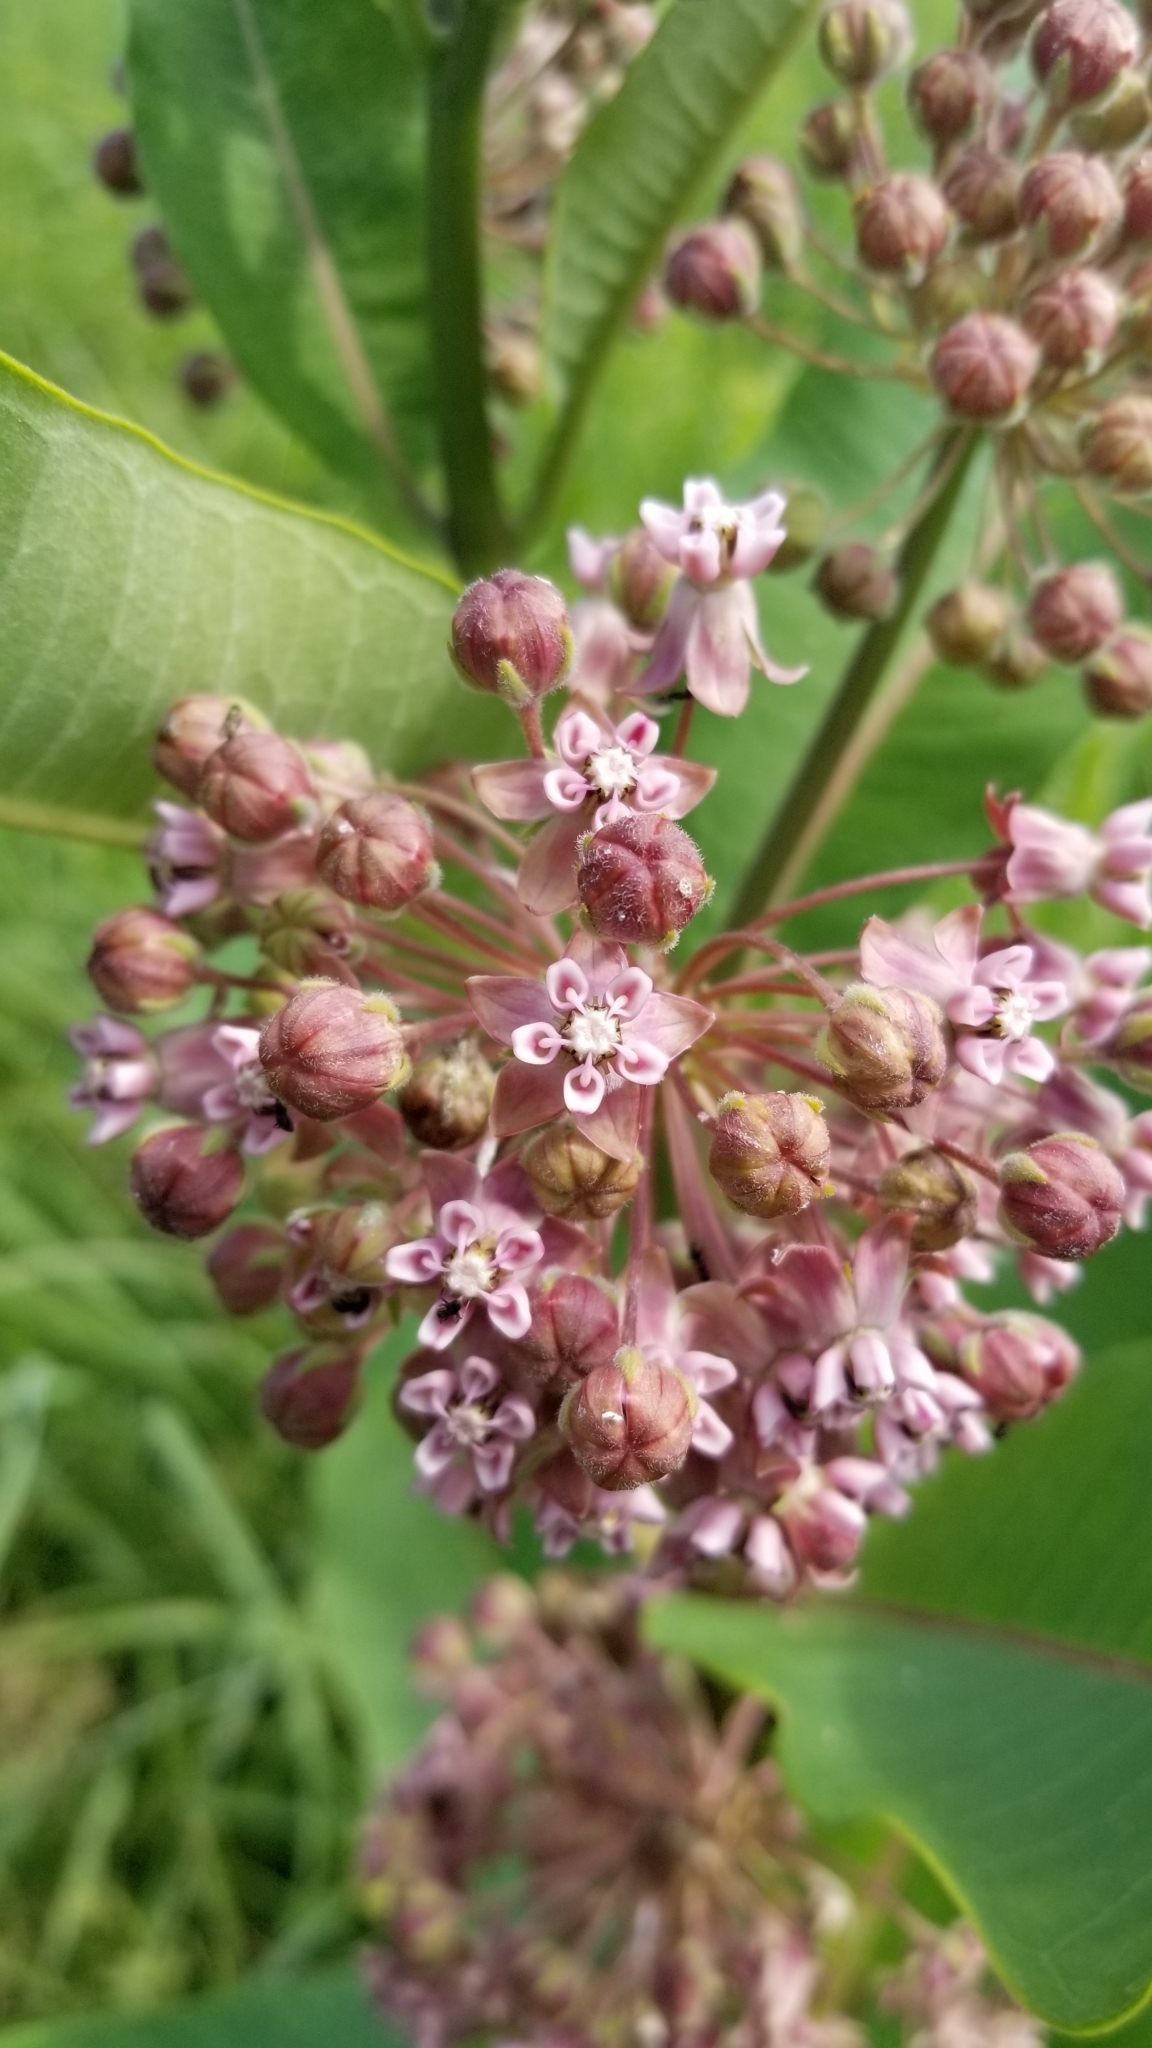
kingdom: Plantae
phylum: Tracheophyta
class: Magnoliopsida
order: Gentianales
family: Apocynaceae
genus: Asclepias
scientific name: Asclepias syriaca
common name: Common milkweed
